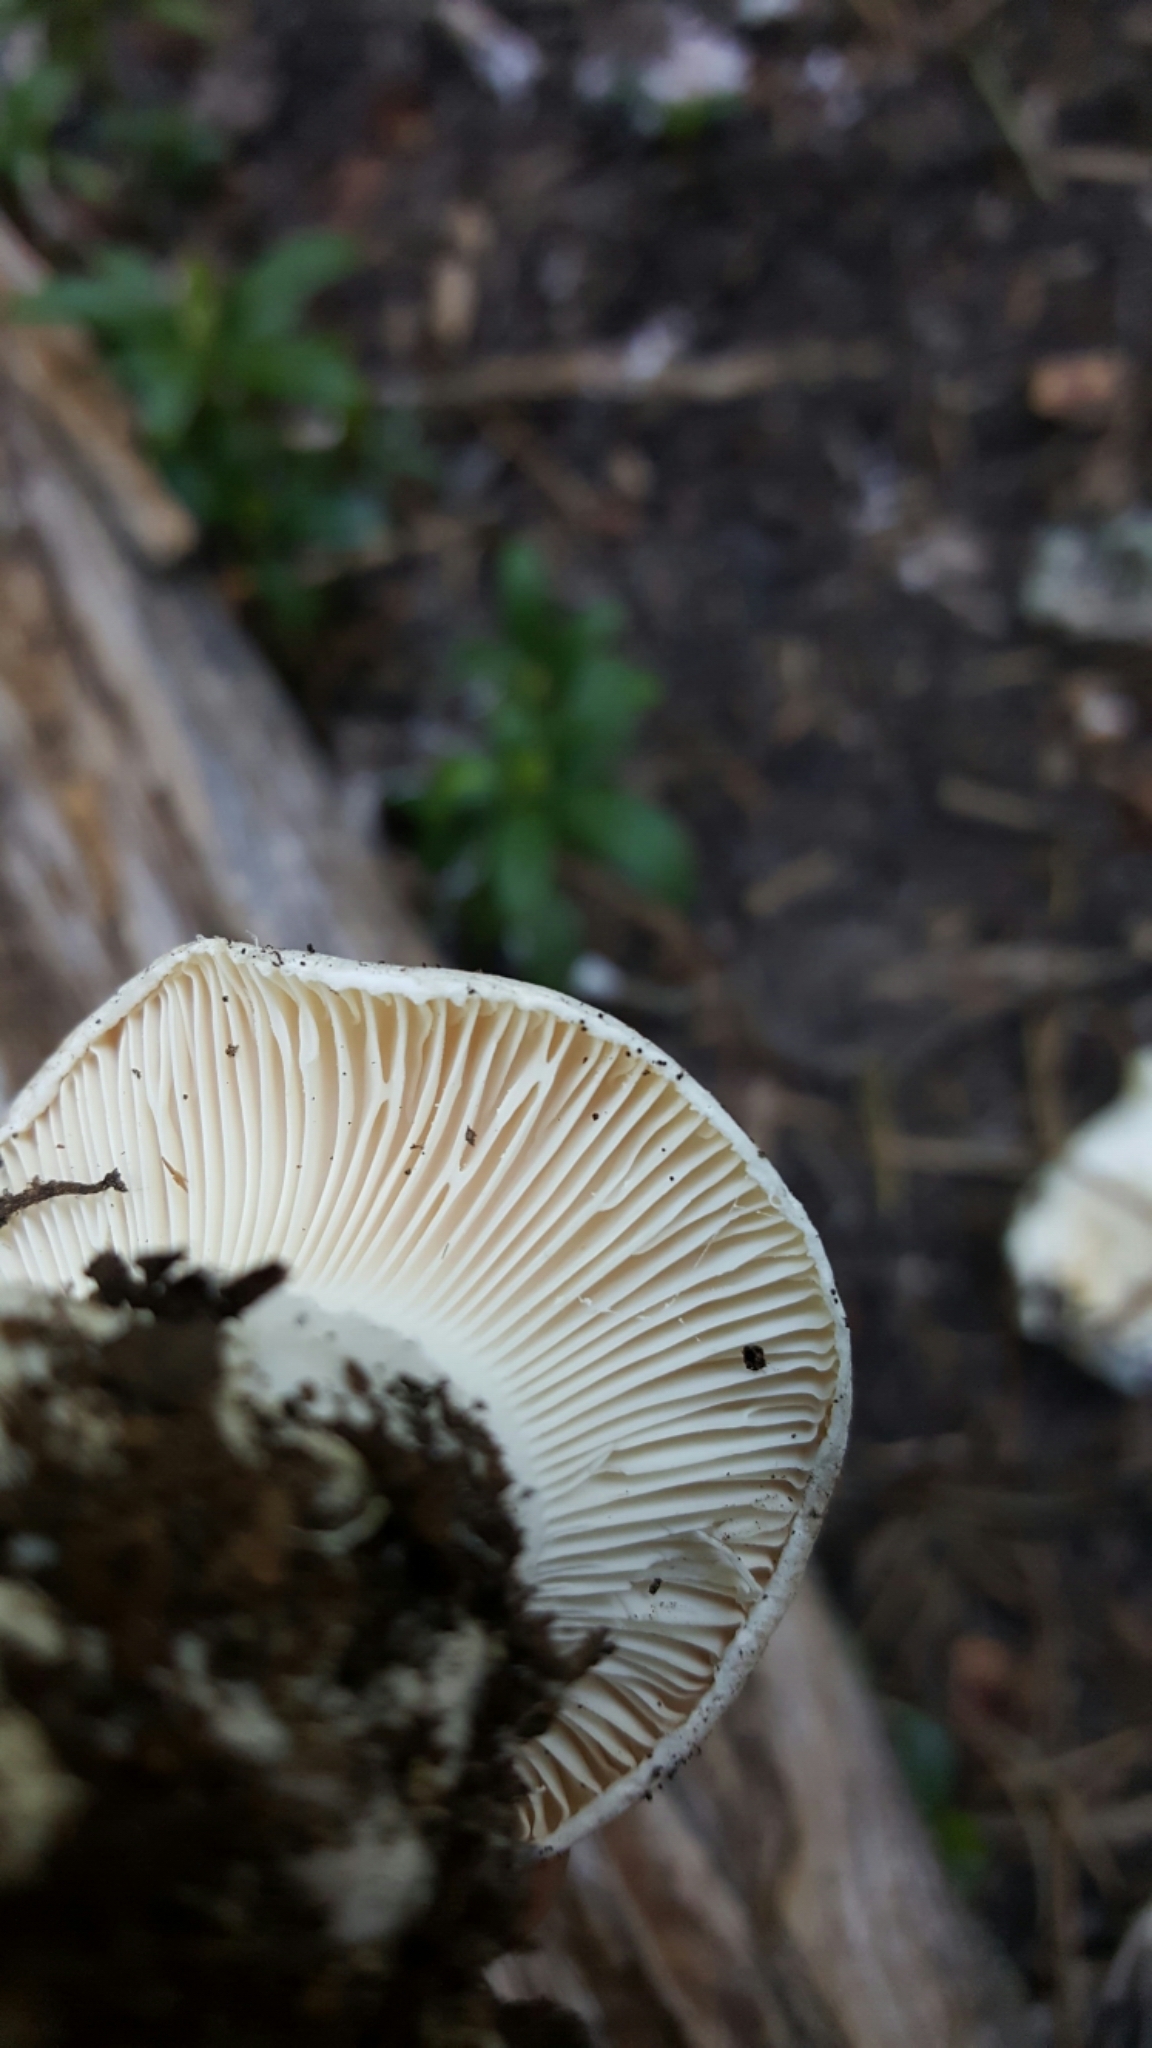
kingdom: Fungi
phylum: Basidiomycota
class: Agaricomycetes
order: Agaricales
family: Hygrophoraceae
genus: Hygrophorus
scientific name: Hygrophorus subalpinus
